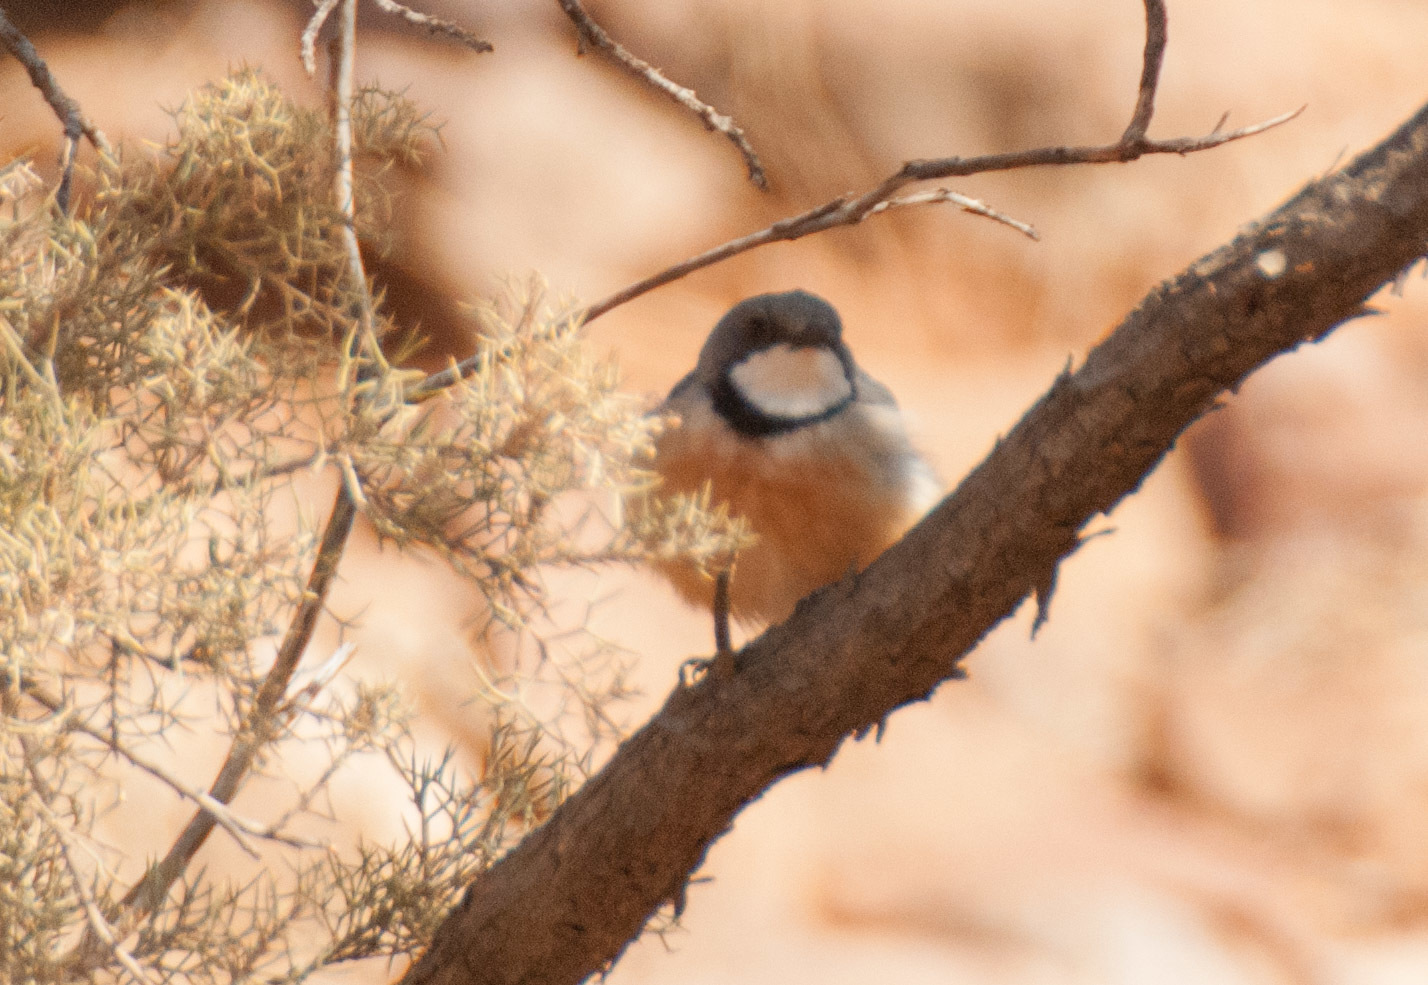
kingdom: Animalia
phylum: Chordata
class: Aves
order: Passeriformes
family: Pachycephalidae
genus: Pachycephala
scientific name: Pachycephala rufiventris
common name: Rufous whistler
